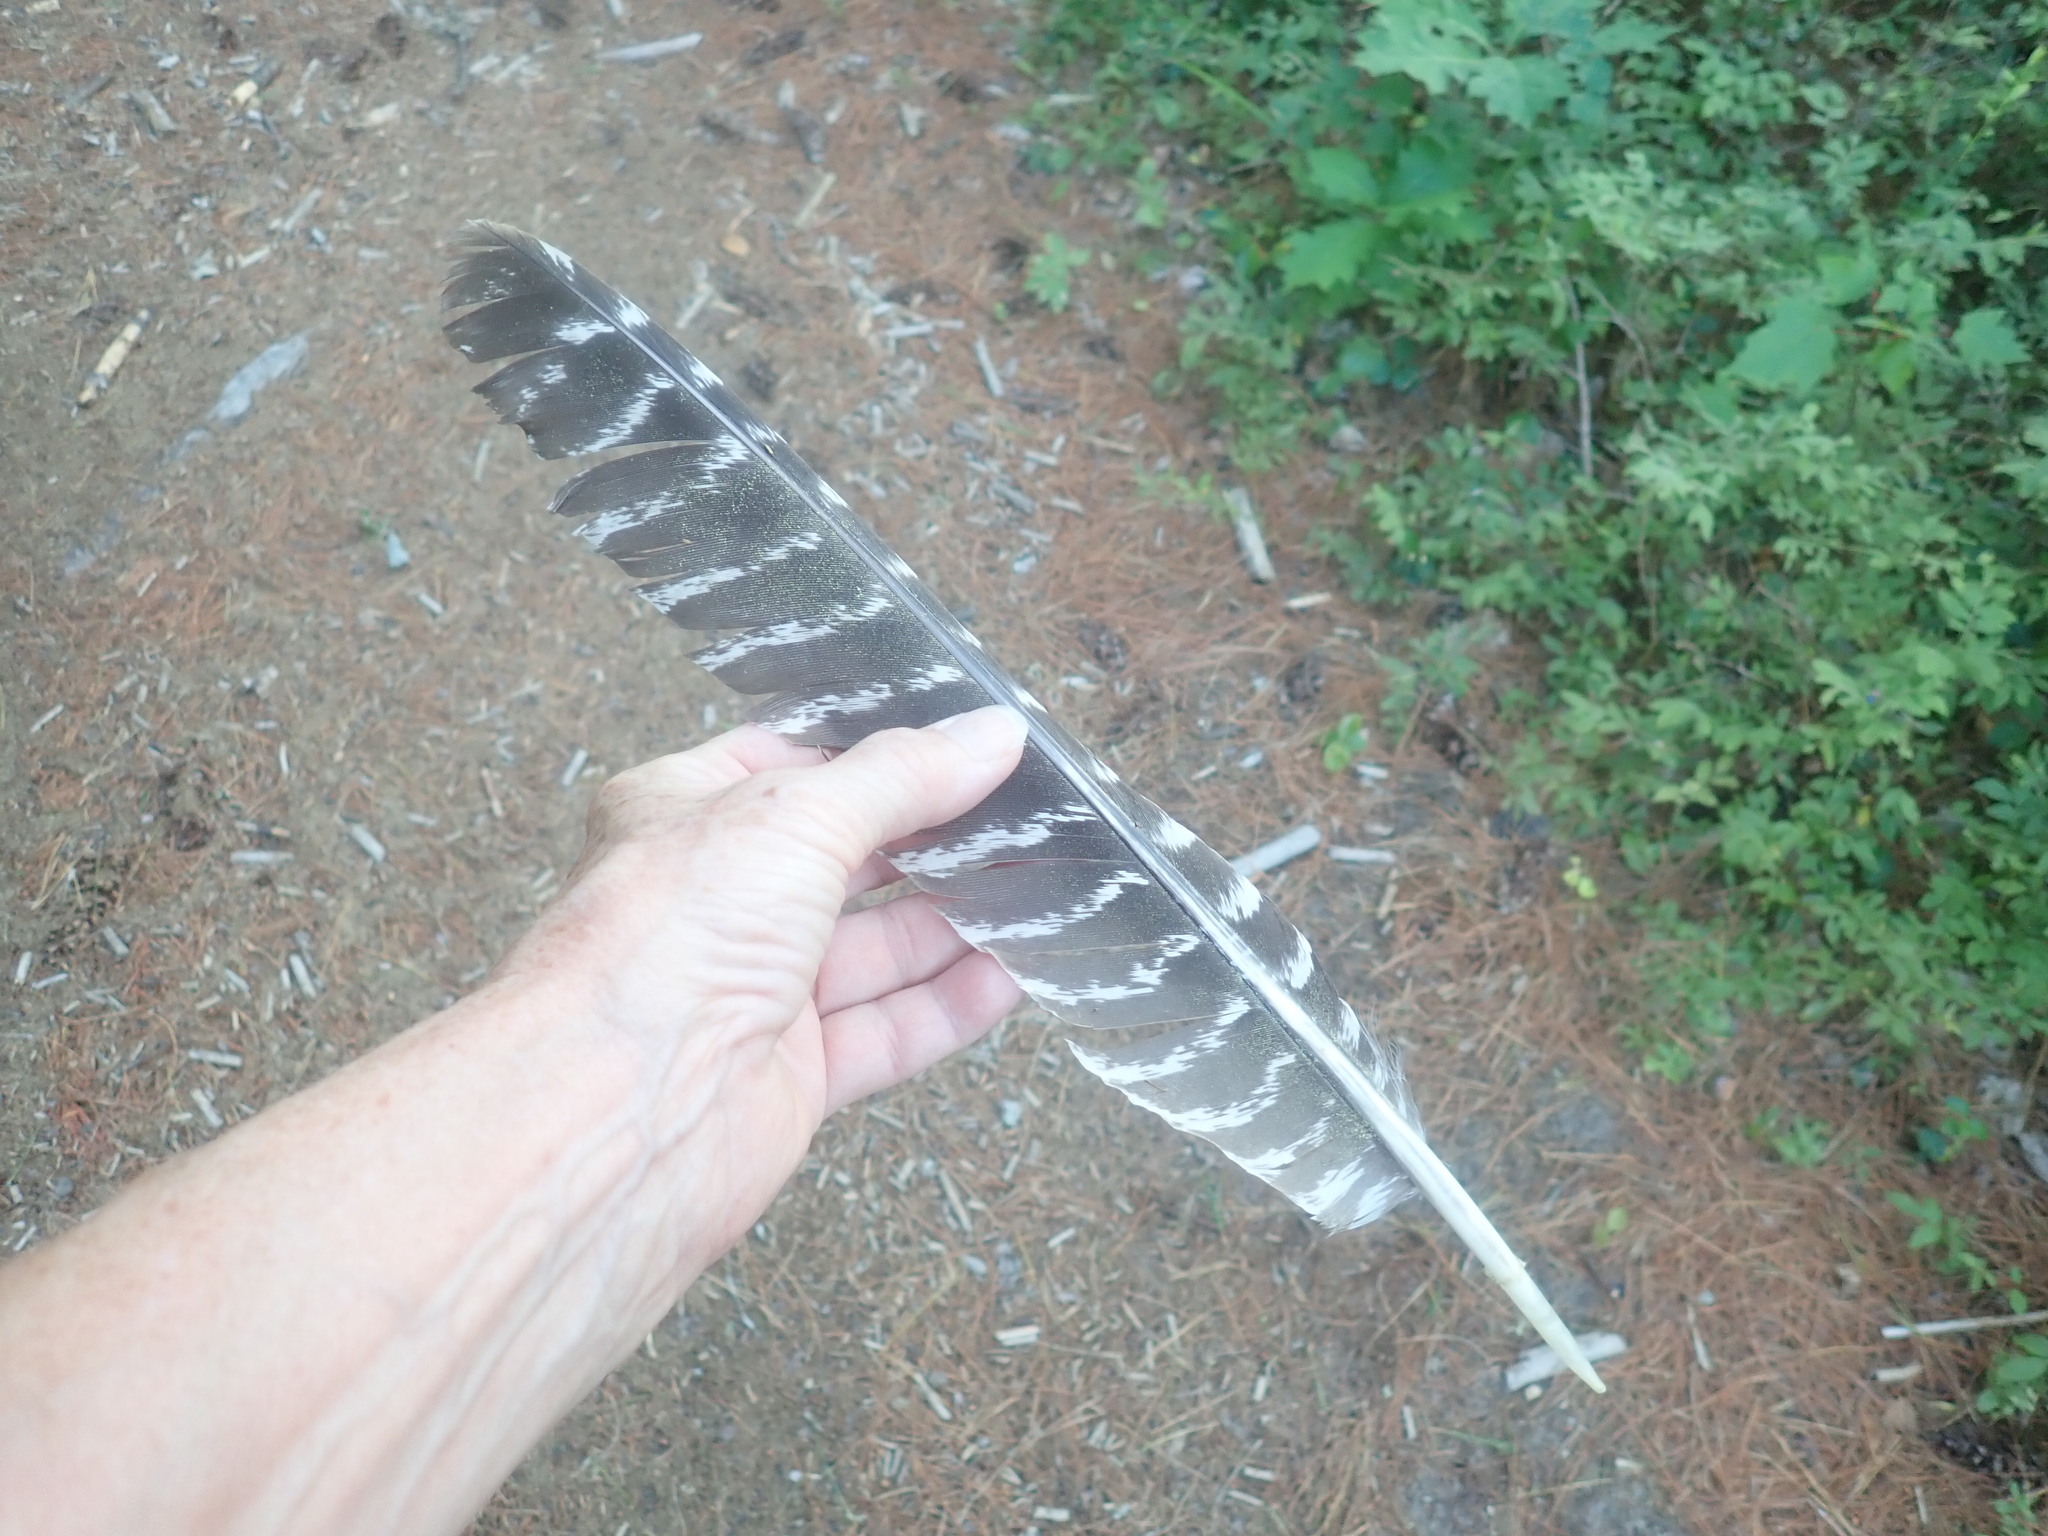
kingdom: Animalia
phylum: Chordata
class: Aves
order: Galliformes
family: Phasianidae
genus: Meleagris
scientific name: Meleagris gallopavo
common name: Wild turkey
